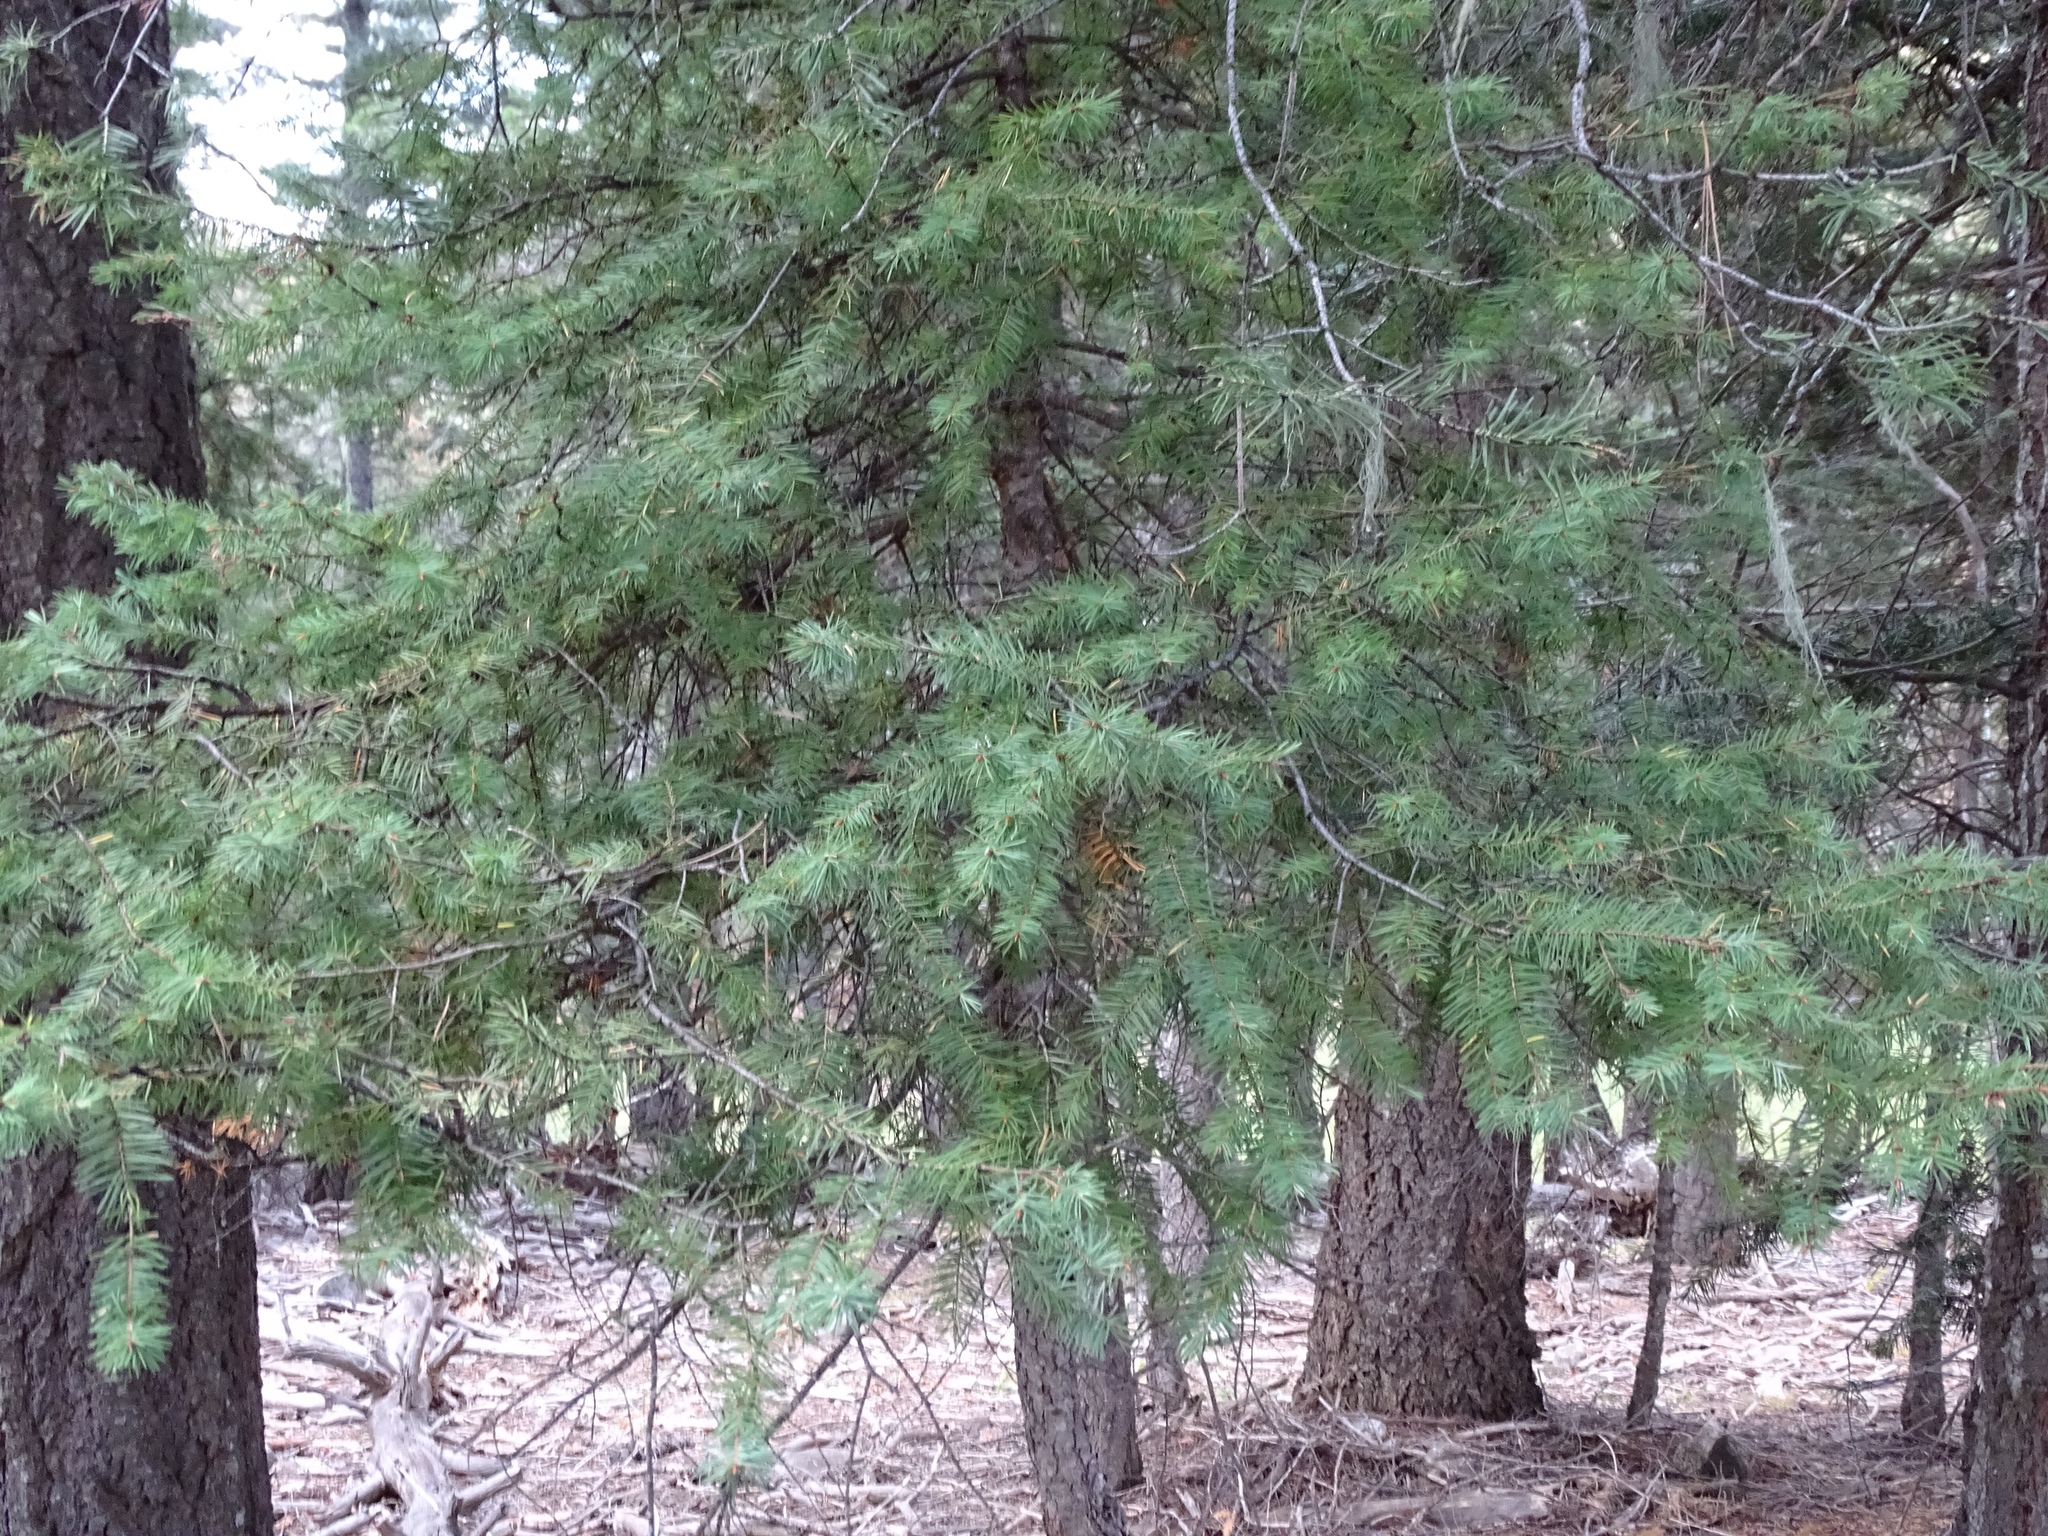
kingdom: Plantae
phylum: Tracheophyta
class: Pinopsida
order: Pinales
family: Pinaceae
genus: Pseudotsuga
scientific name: Pseudotsuga menziesii
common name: Douglas fir
